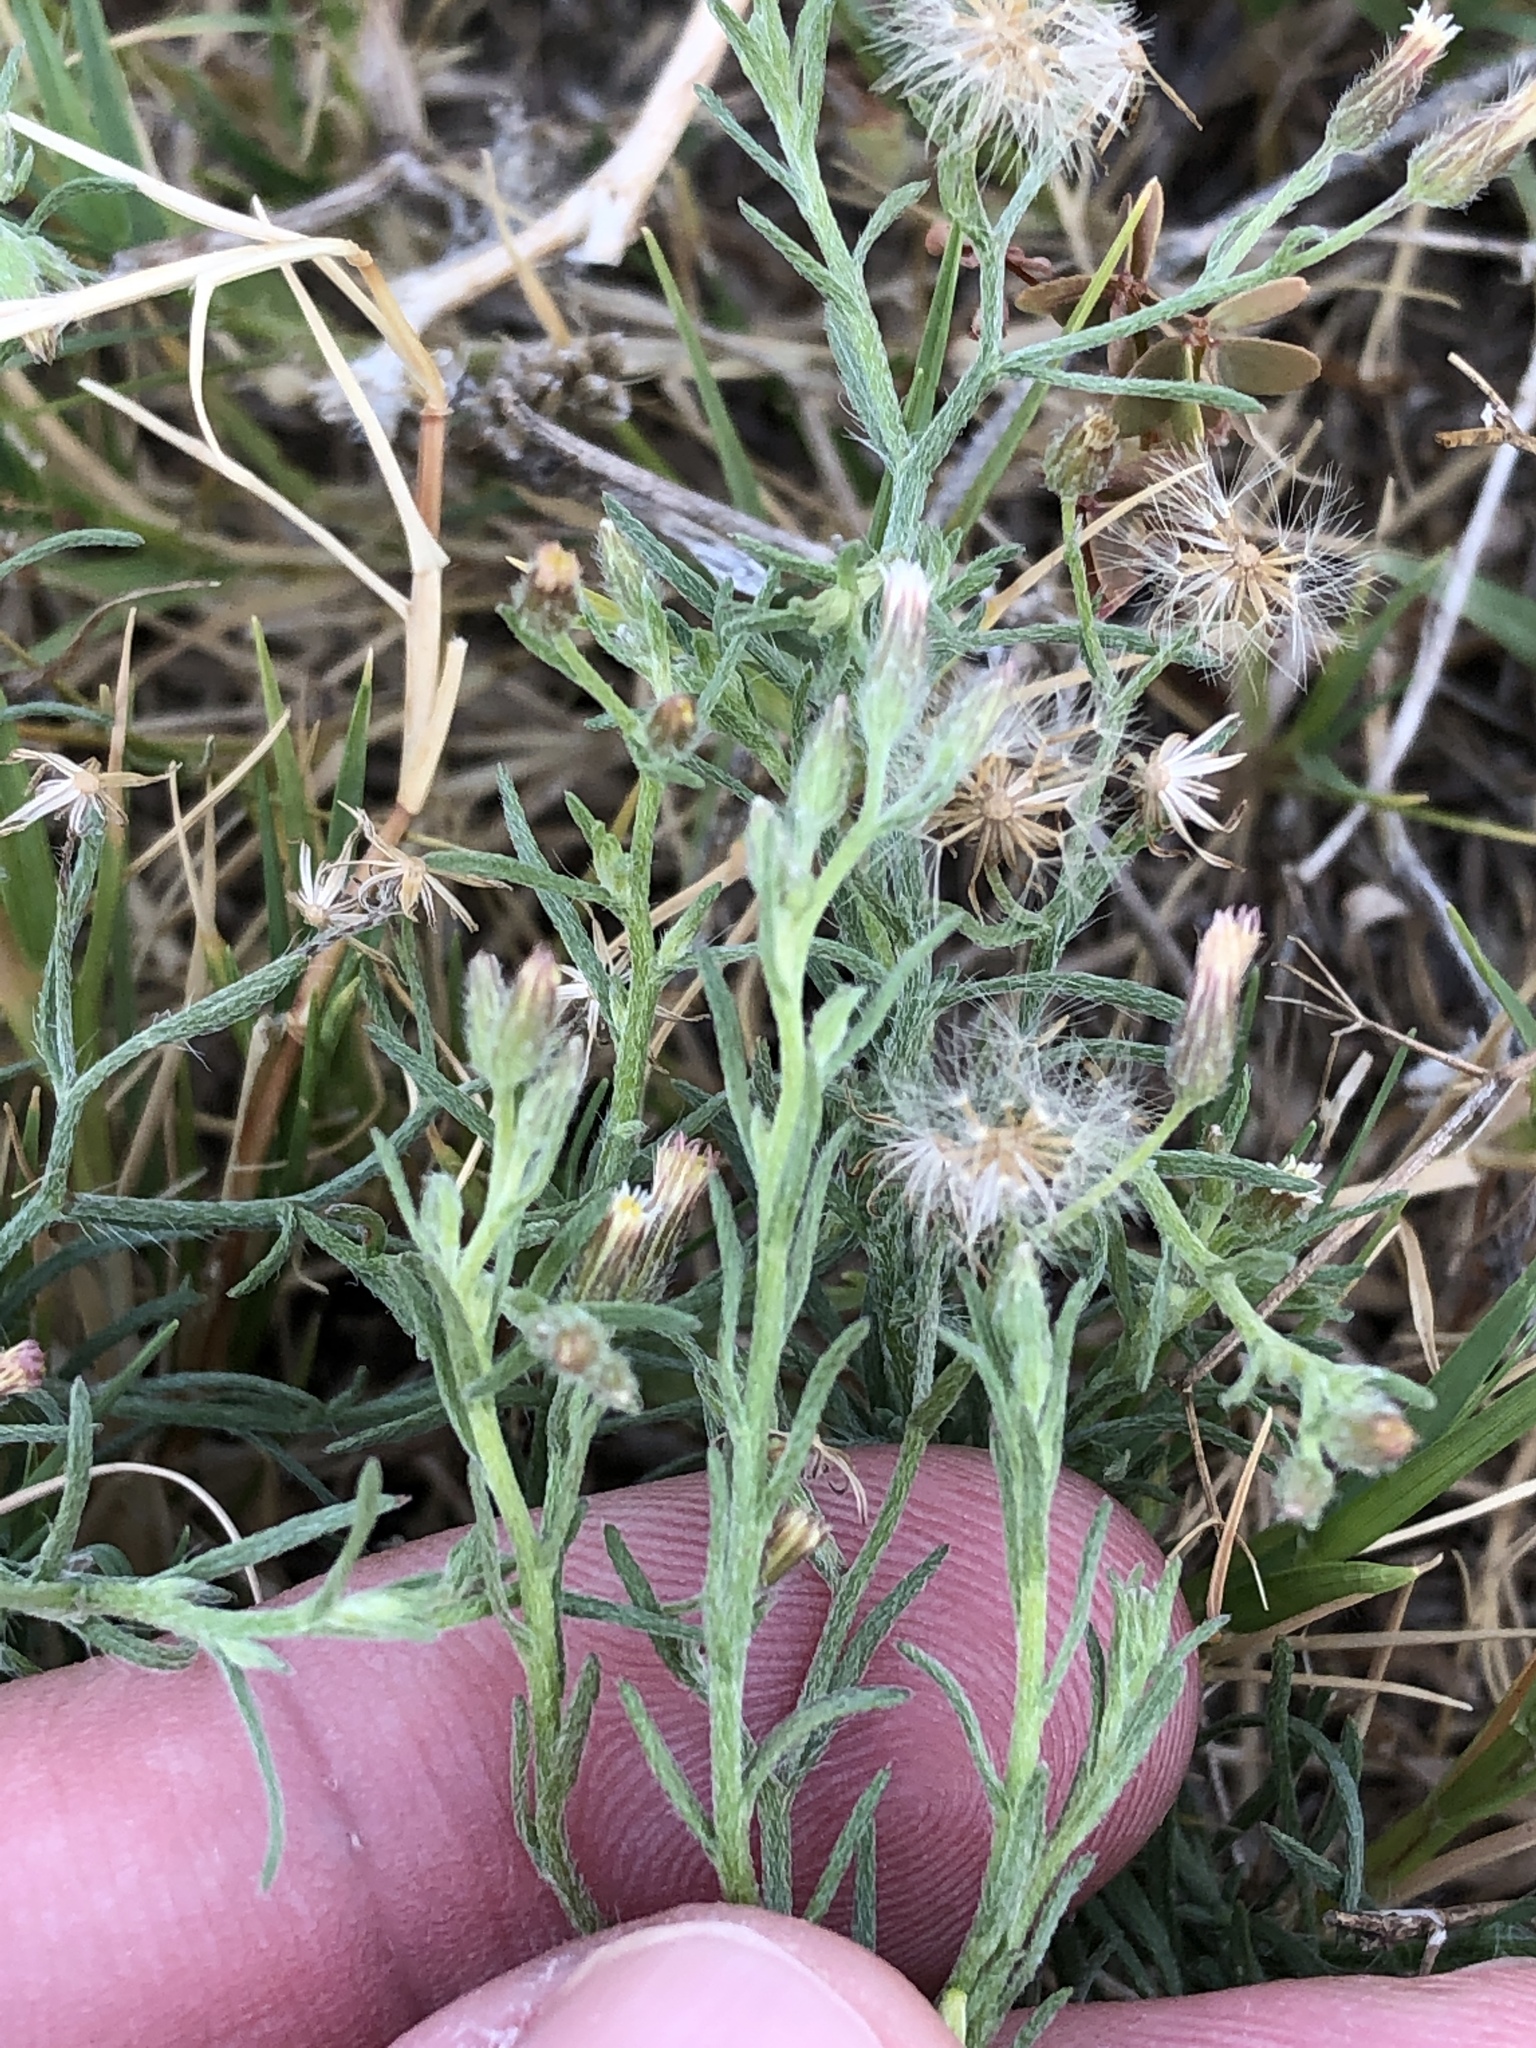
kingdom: Plantae
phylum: Tracheophyta
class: Magnoliopsida
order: Asterales
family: Asteraceae
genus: Erigeron
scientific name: Erigeron divaricatus
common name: Dwarf conyza
